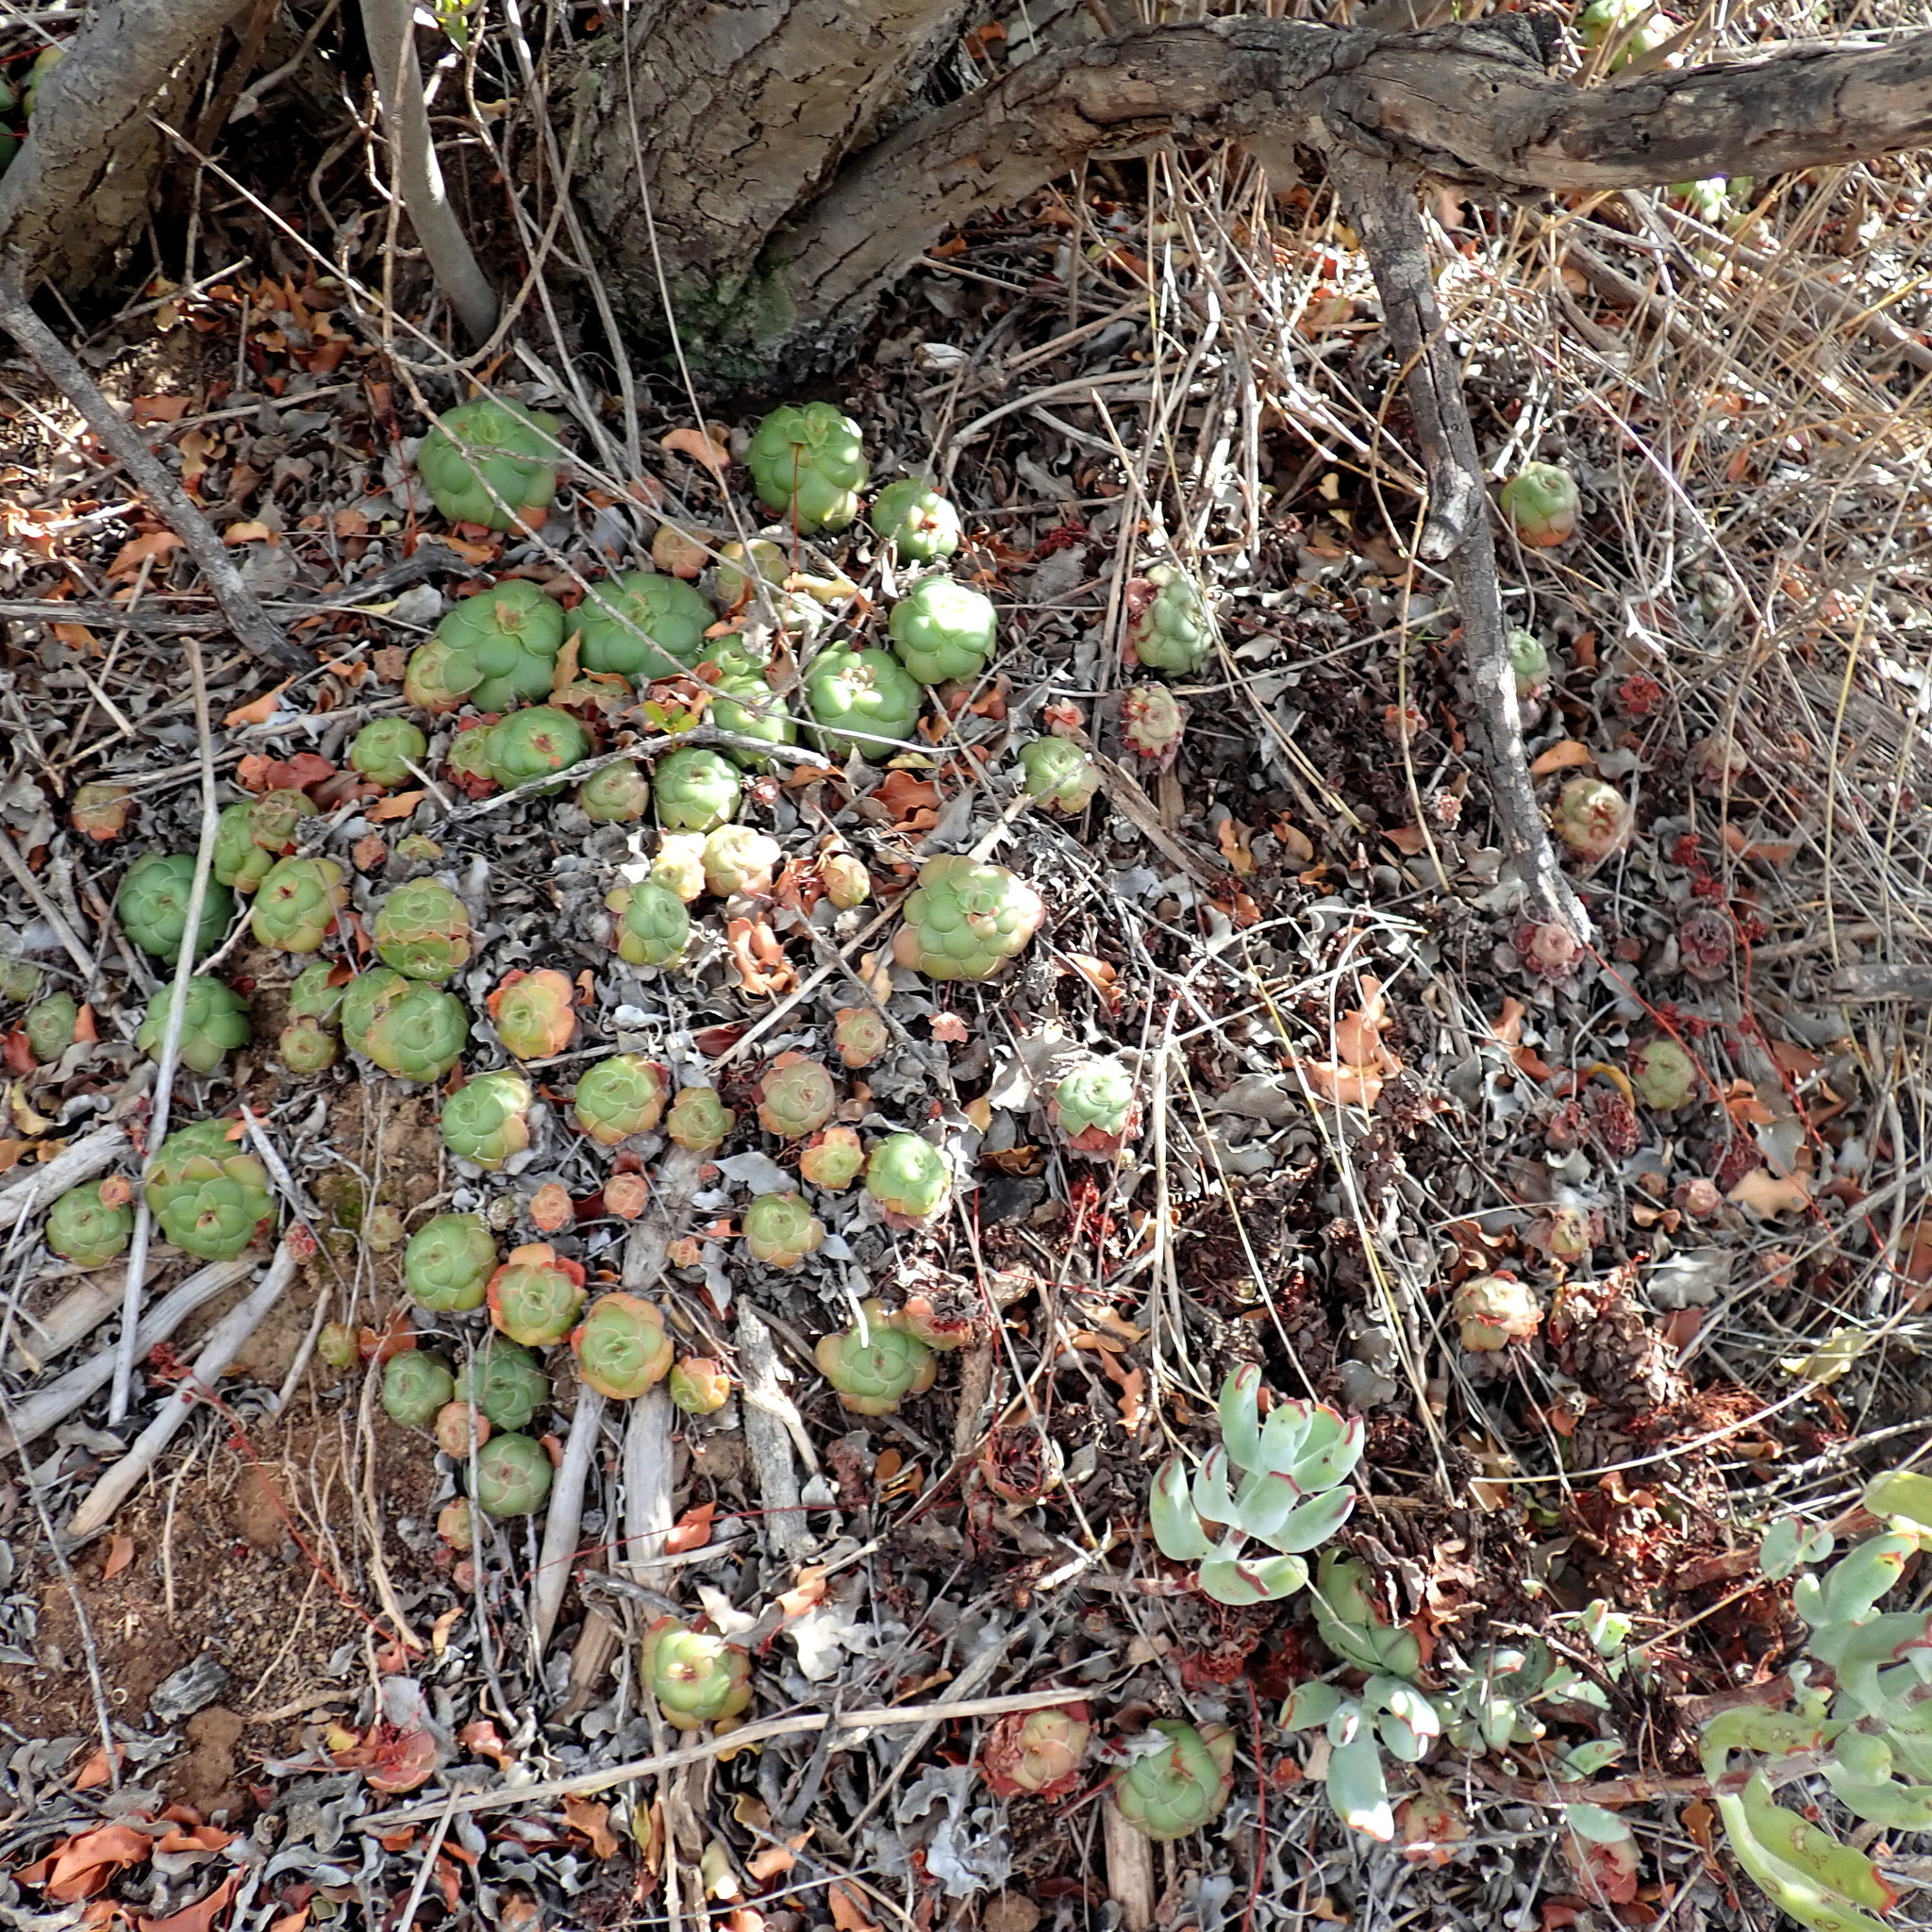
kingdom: Plantae
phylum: Tracheophyta
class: Magnoliopsida
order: Saxifragales
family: Crassulaceae
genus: Crassula
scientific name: Crassula orbicularis
